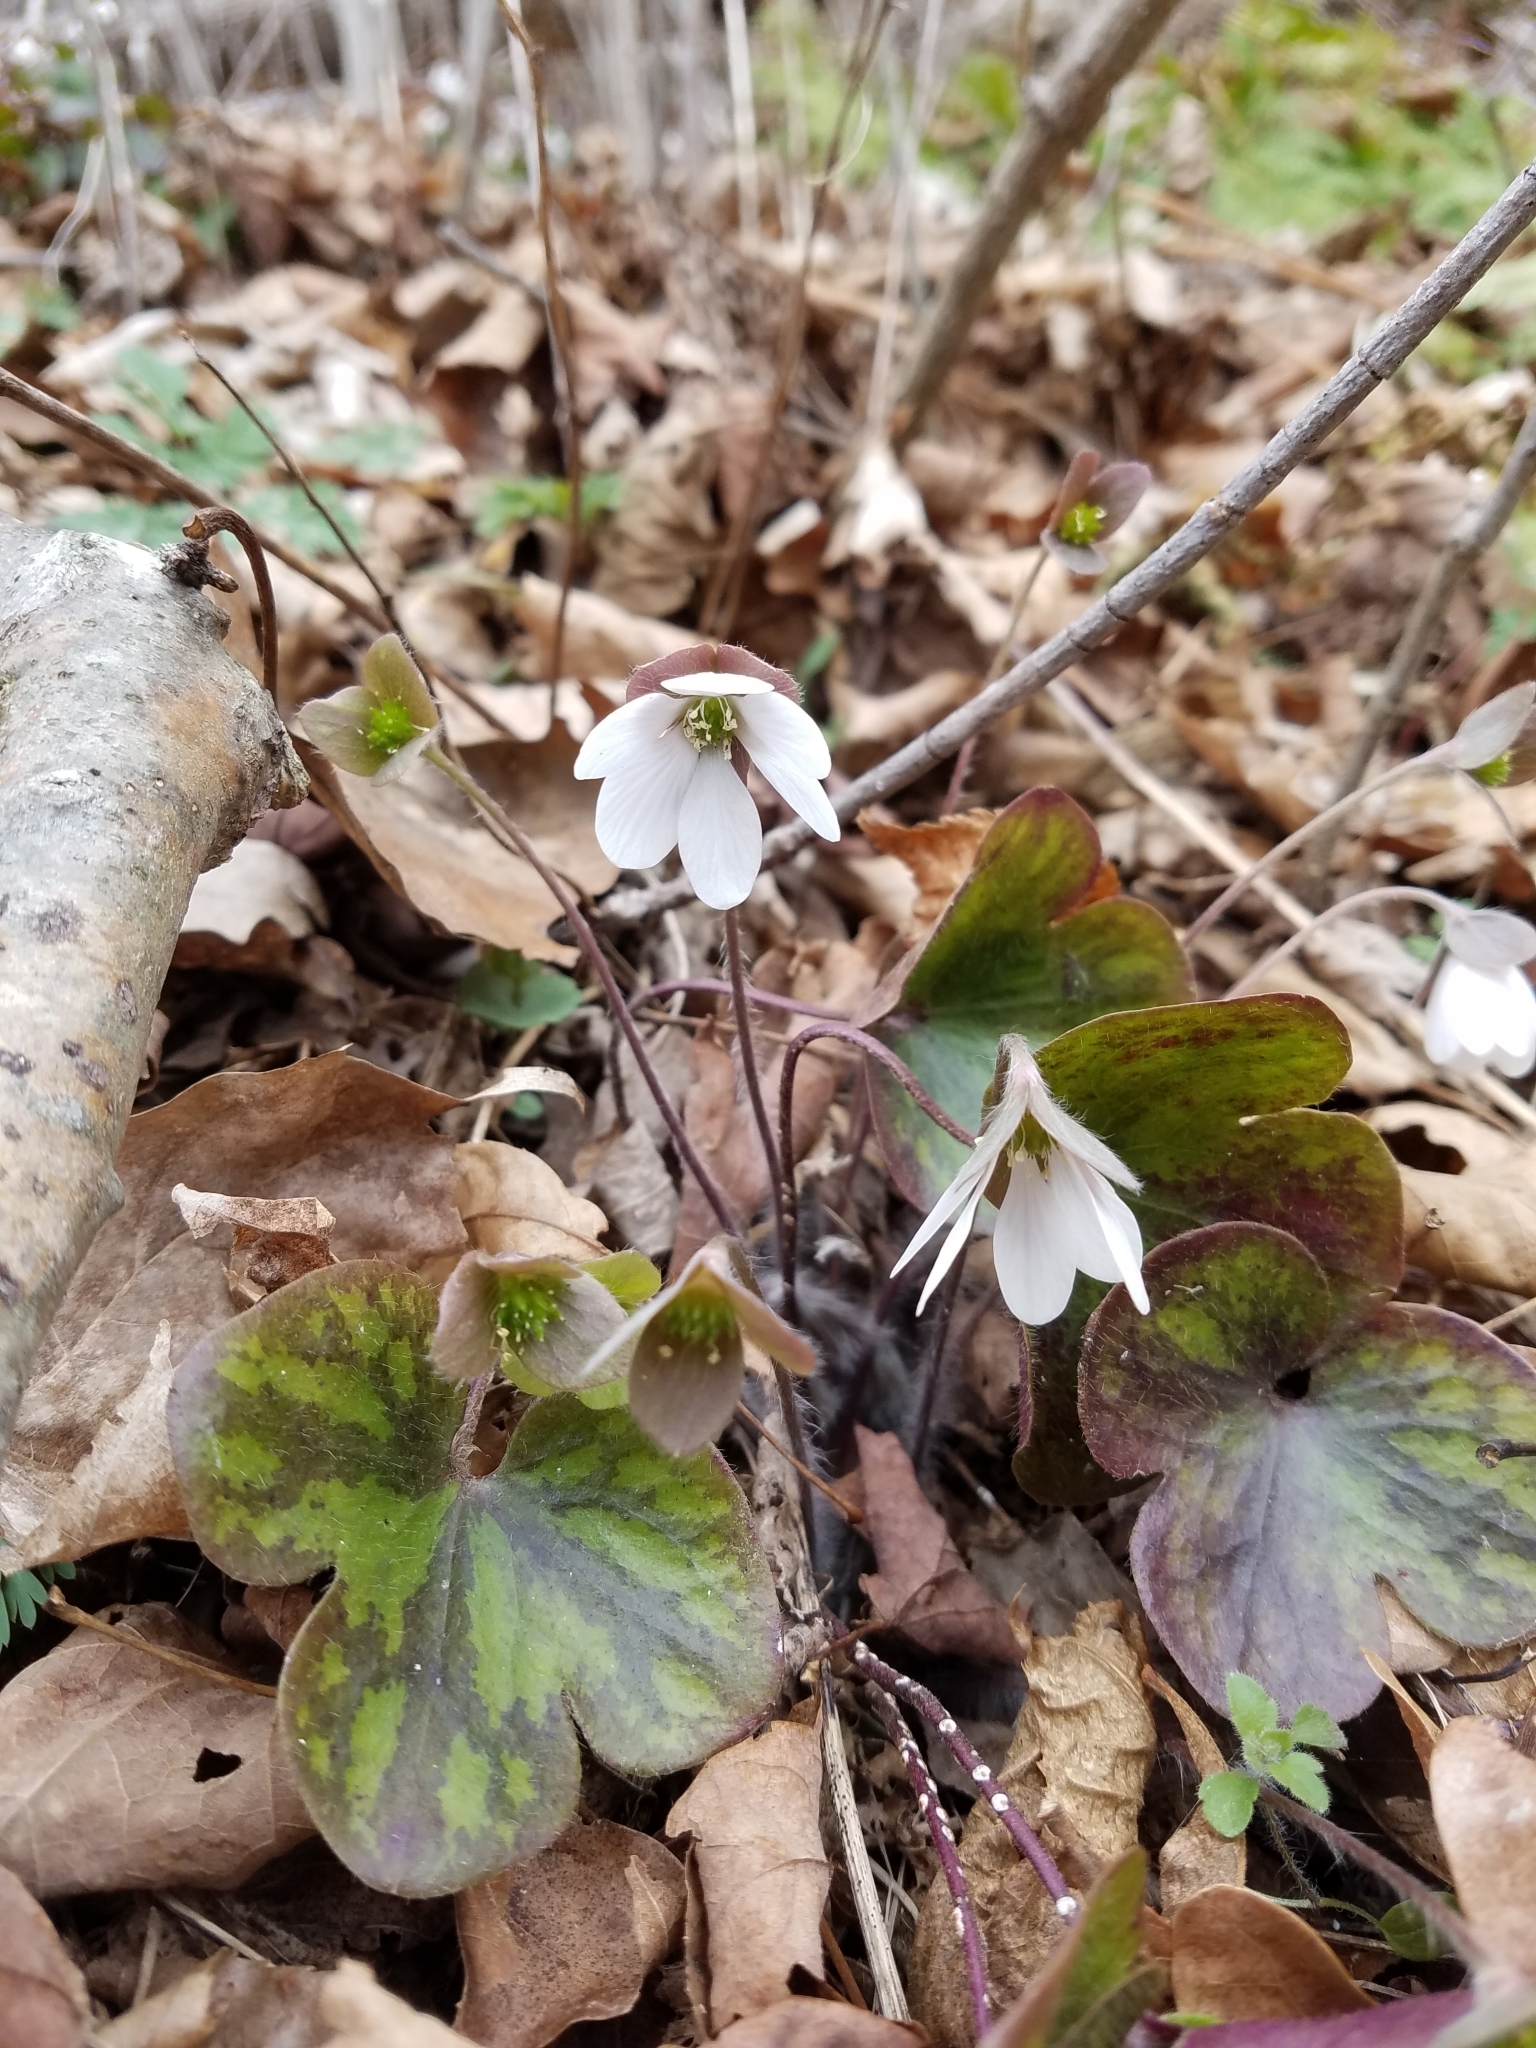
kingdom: Plantae
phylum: Tracheophyta
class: Magnoliopsida
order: Ranunculales
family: Ranunculaceae
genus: Hepatica
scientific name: Hepatica americana
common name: American hepatica
